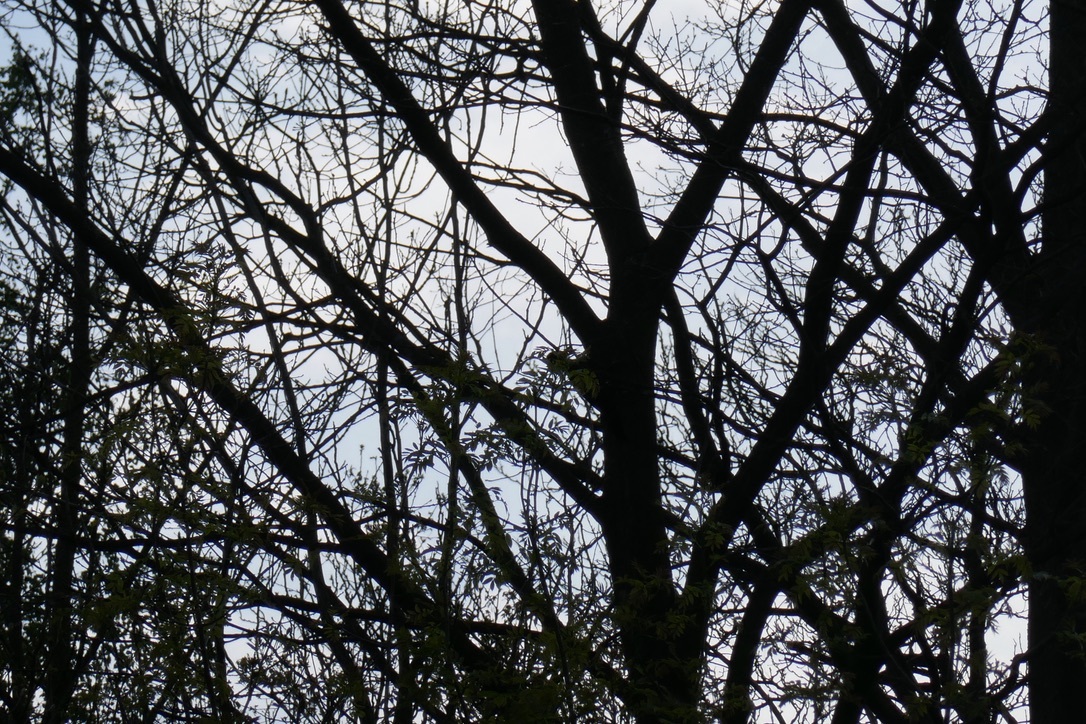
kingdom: Animalia
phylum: Chordata
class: Aves
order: Piciformes
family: Picidae
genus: Dryocopus
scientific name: Dryocopus martius
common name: Black woodpecker
